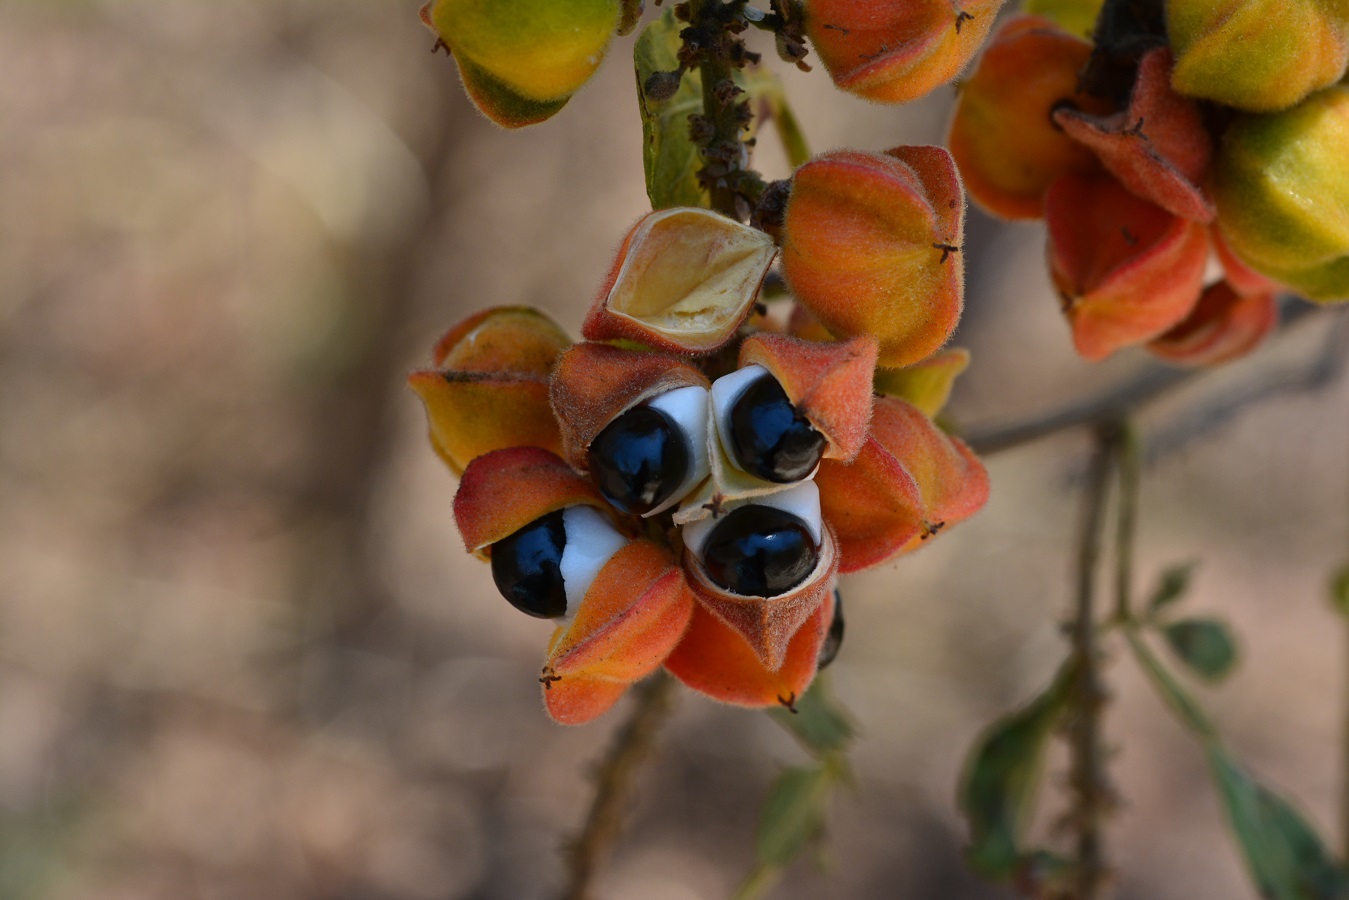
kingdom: Plantae
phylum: Tracheophyta
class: Magnoliopsida
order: Sapindales
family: Sapindaceae
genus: Paullinia
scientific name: Paullinia fuscescens
